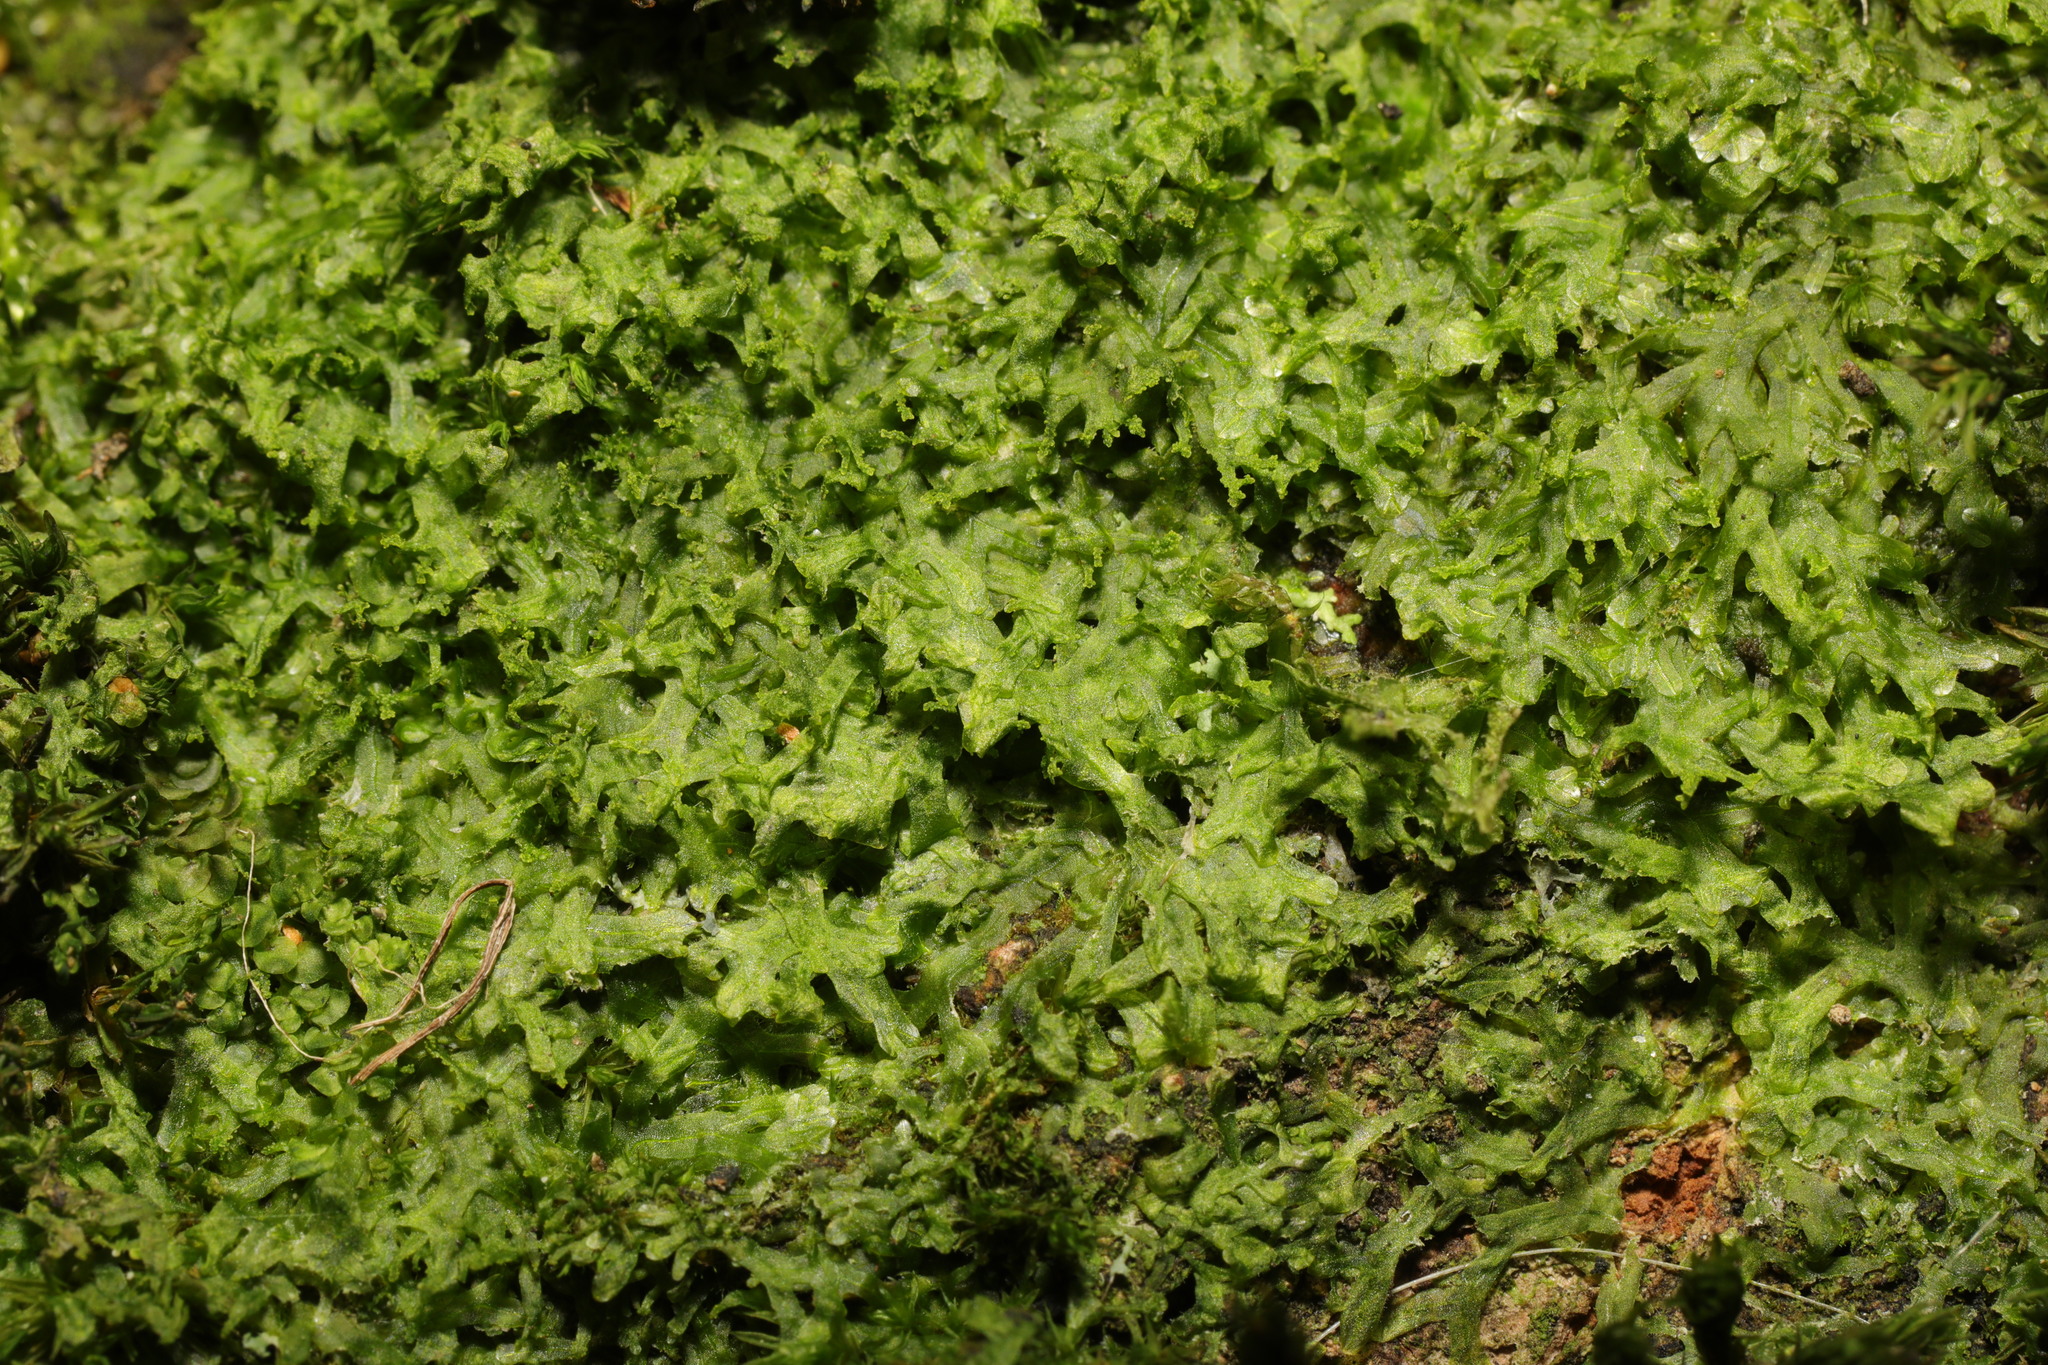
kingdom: Plantae
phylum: Marchantiophyta
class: Jungermanniopsida
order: Metzgeriales
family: Metzgeriaceae
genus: Metzgeria
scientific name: Metzgeria furcata
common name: Forked veilwort
